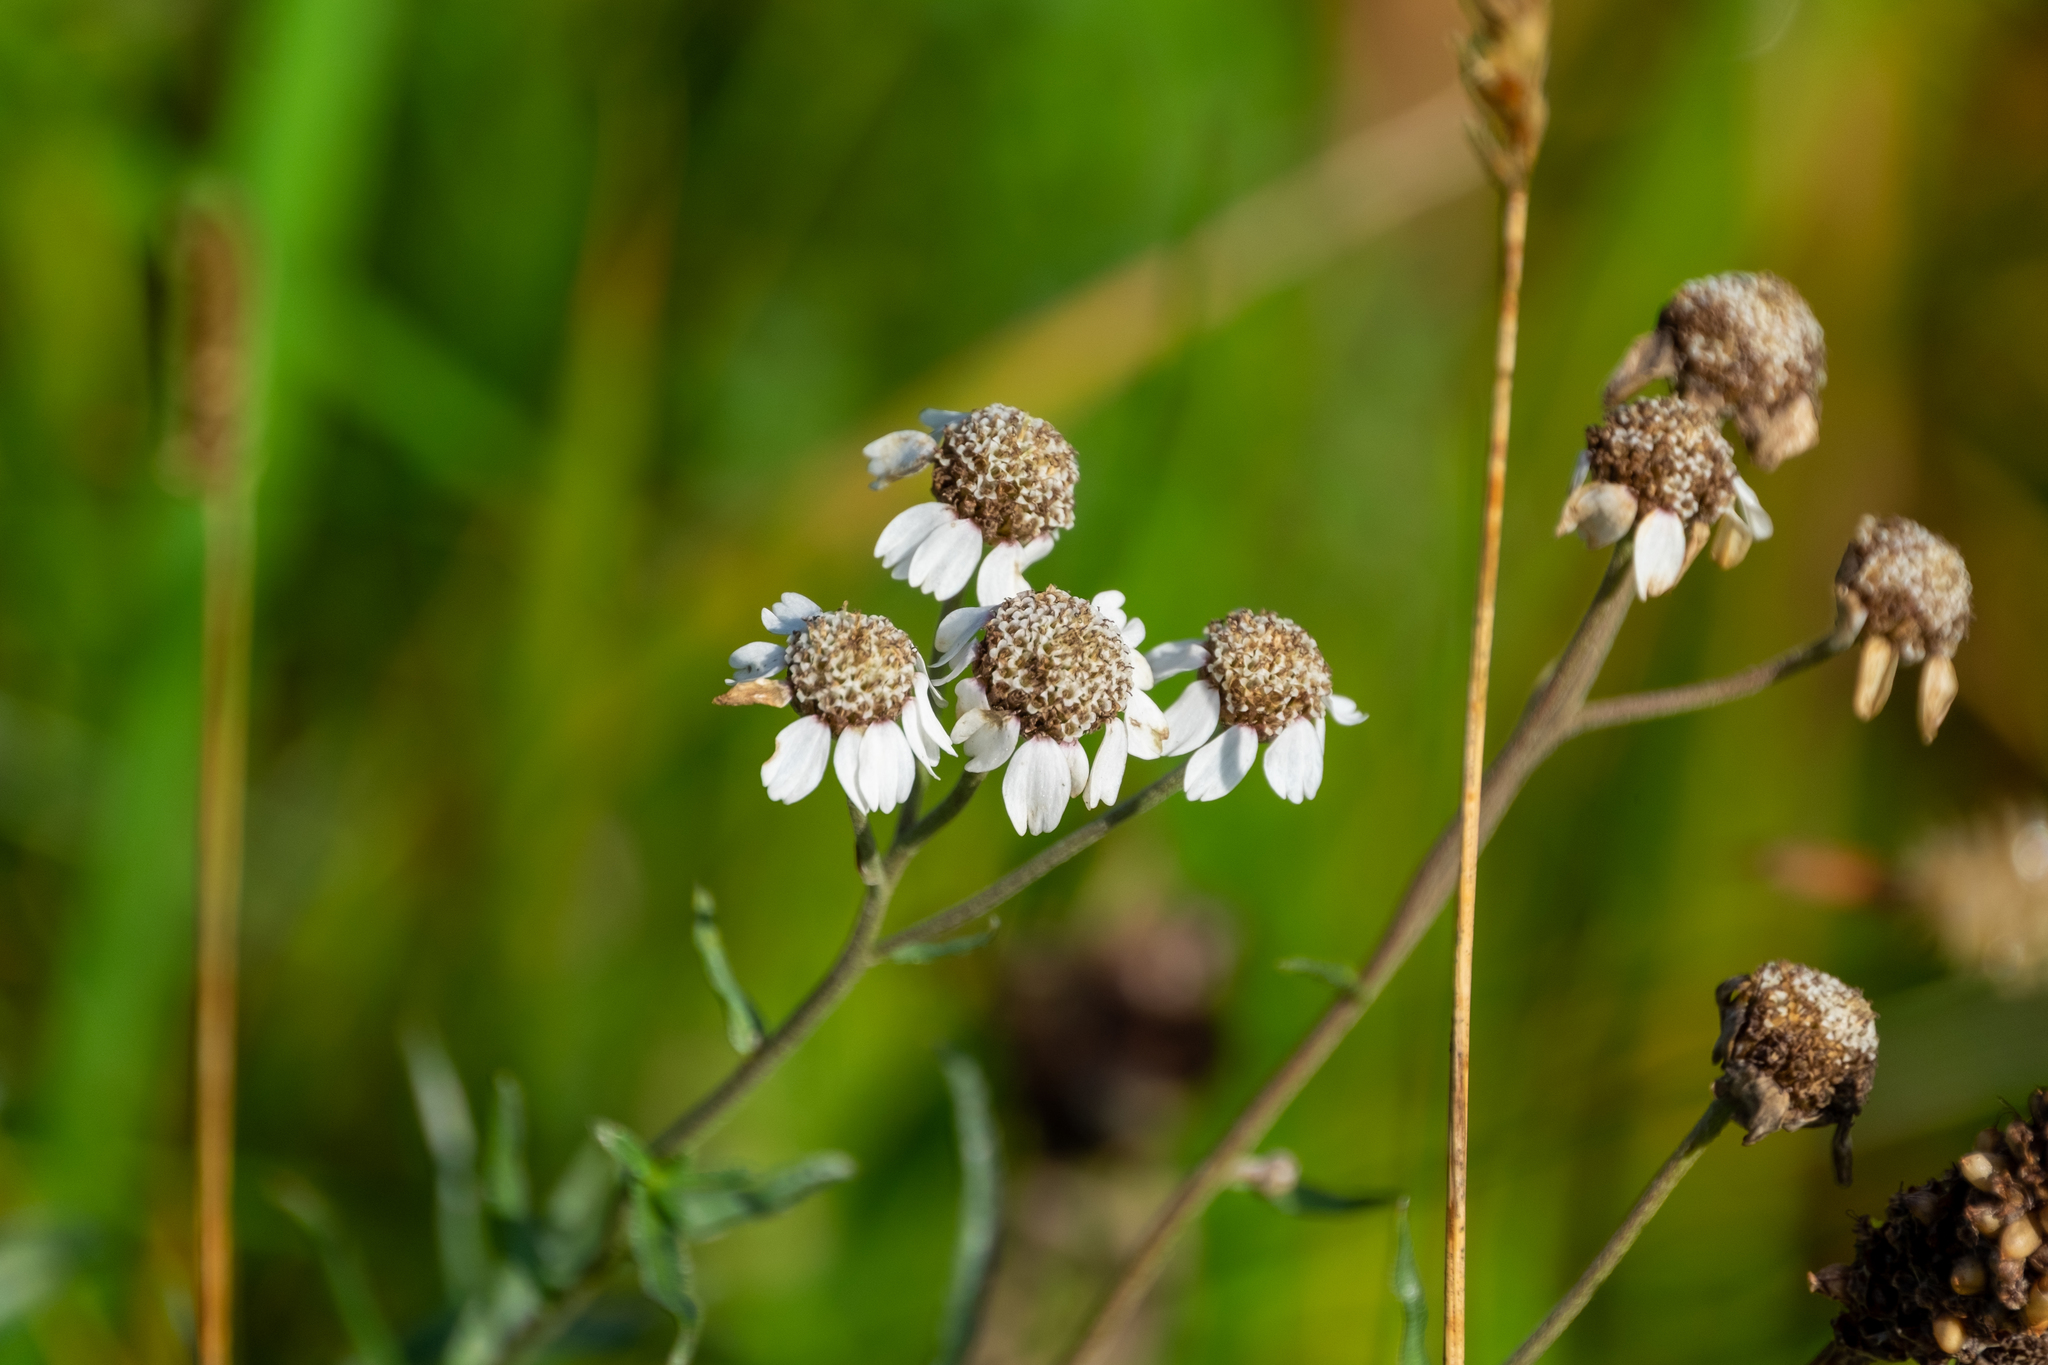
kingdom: Plantae
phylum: Tracheophyta
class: Magnoliopsida
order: Asterales
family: Asteraceae
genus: Achillea
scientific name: Achillea ptarmica
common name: Sneezeweed
